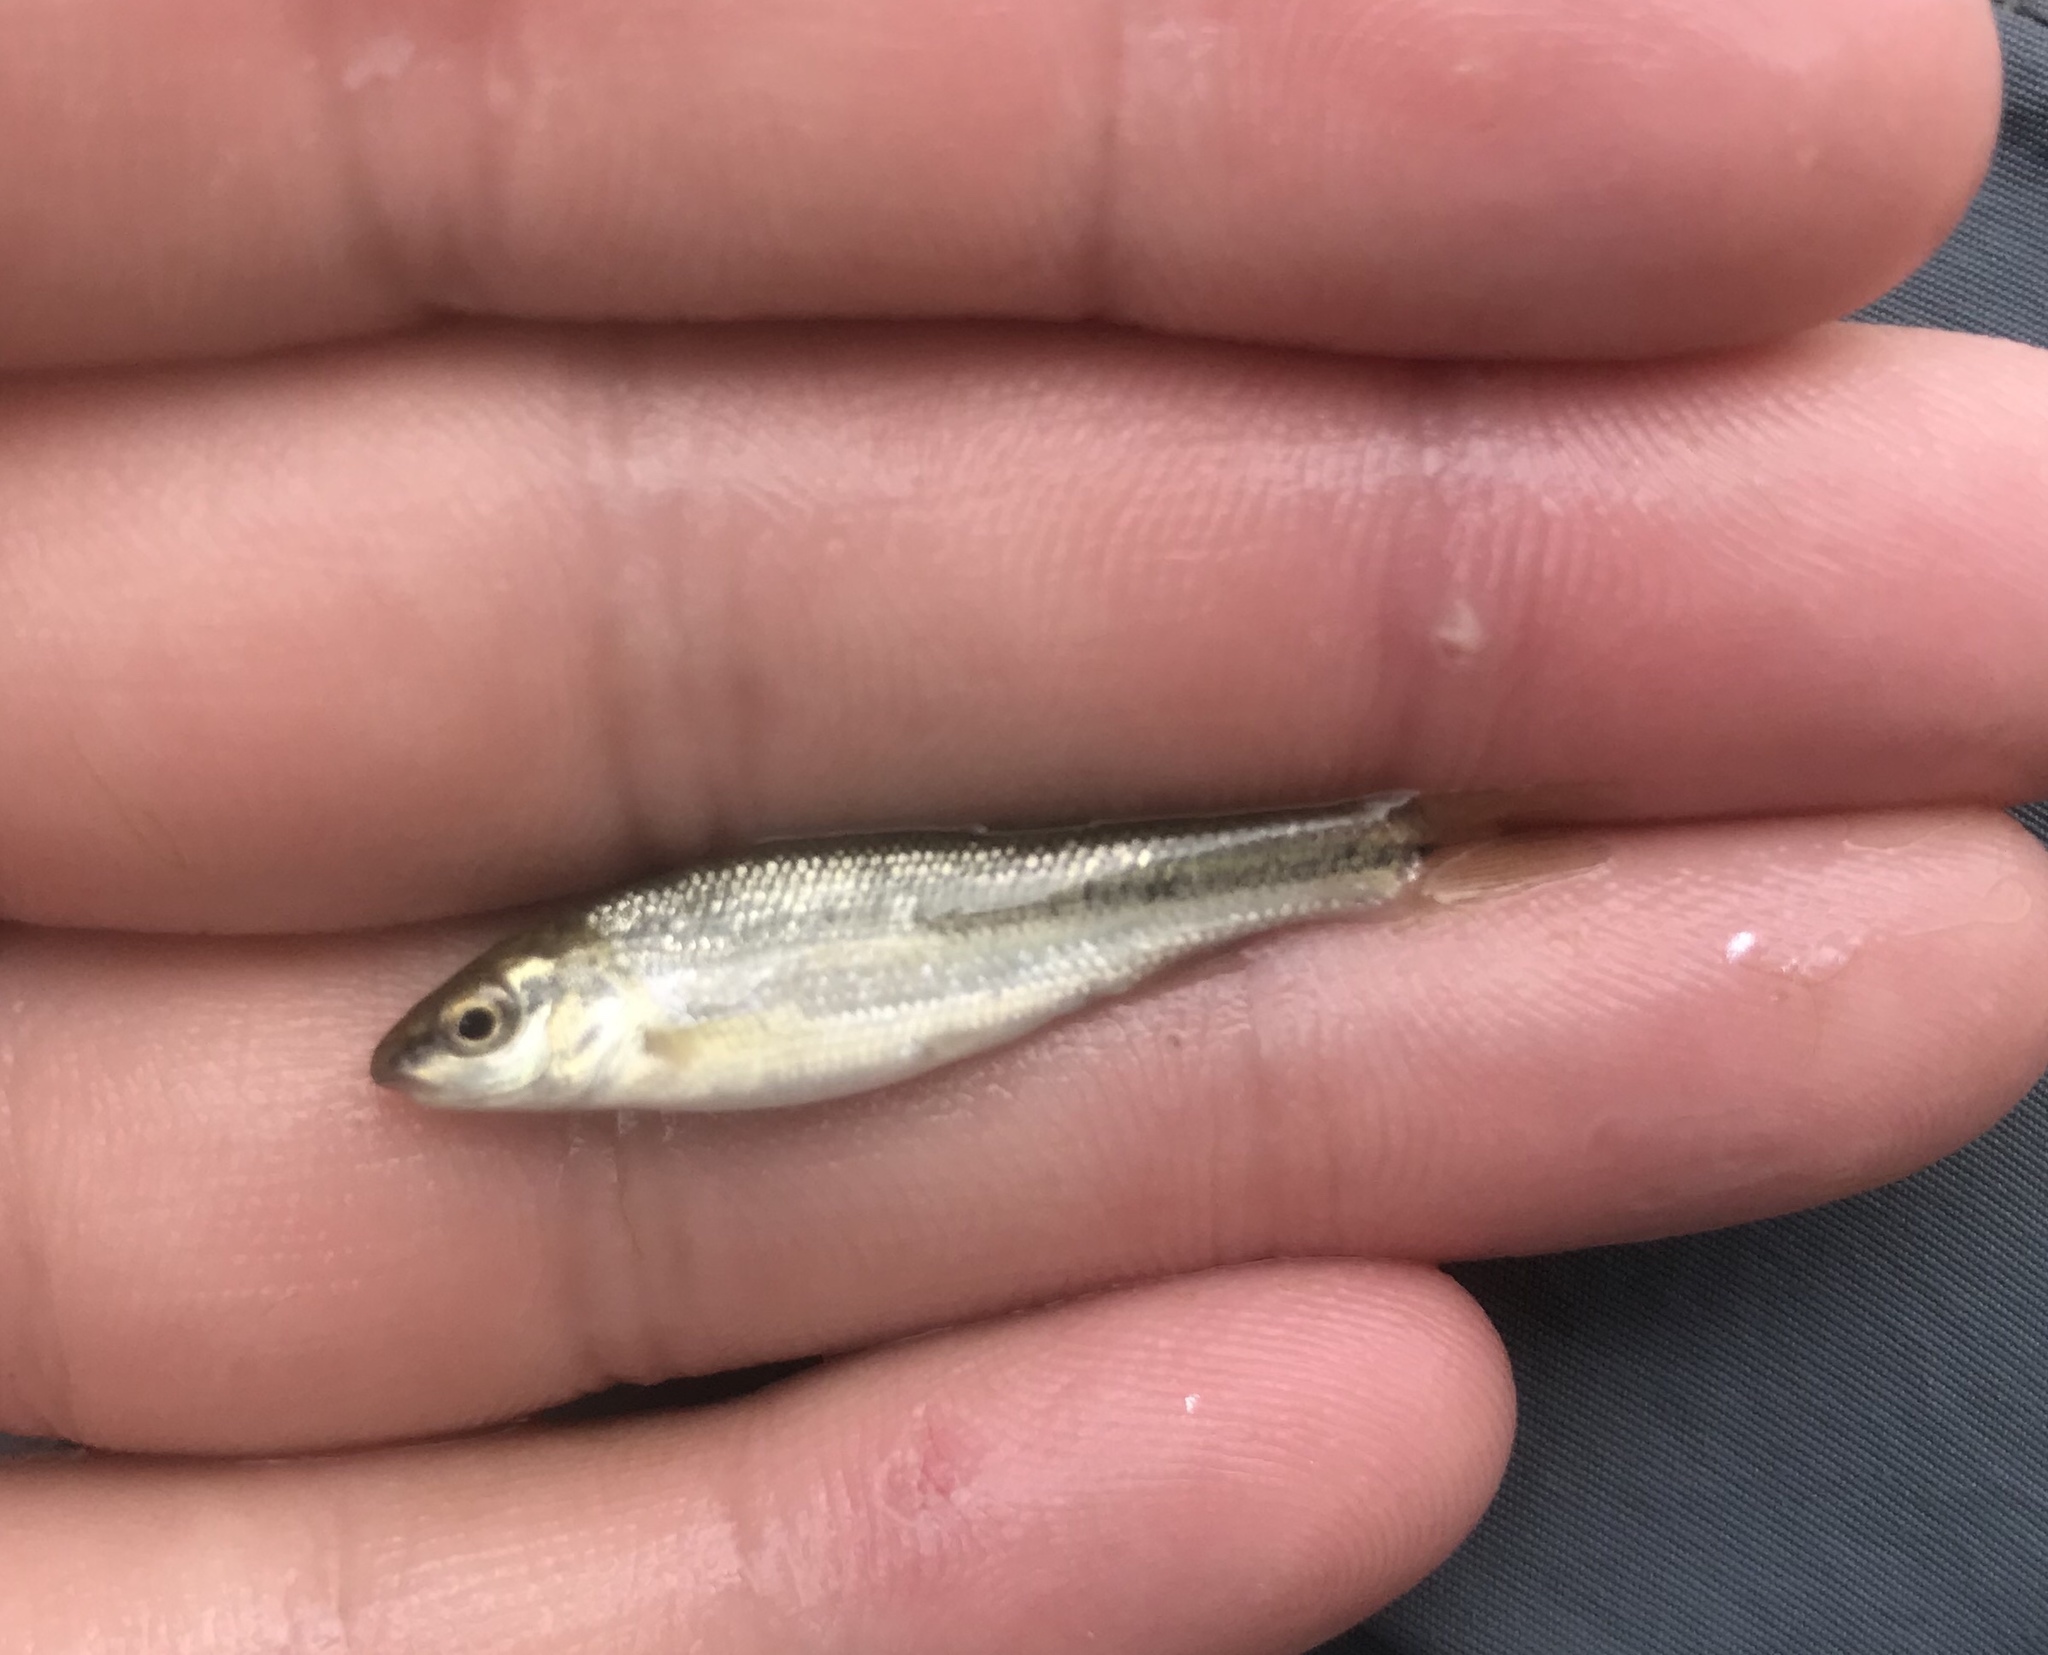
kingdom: Animalia
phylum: Chordata
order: Cypriniformes
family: Cyprinidae
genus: Campostoma
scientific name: Campostoma anomalum
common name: Central stoneroller
